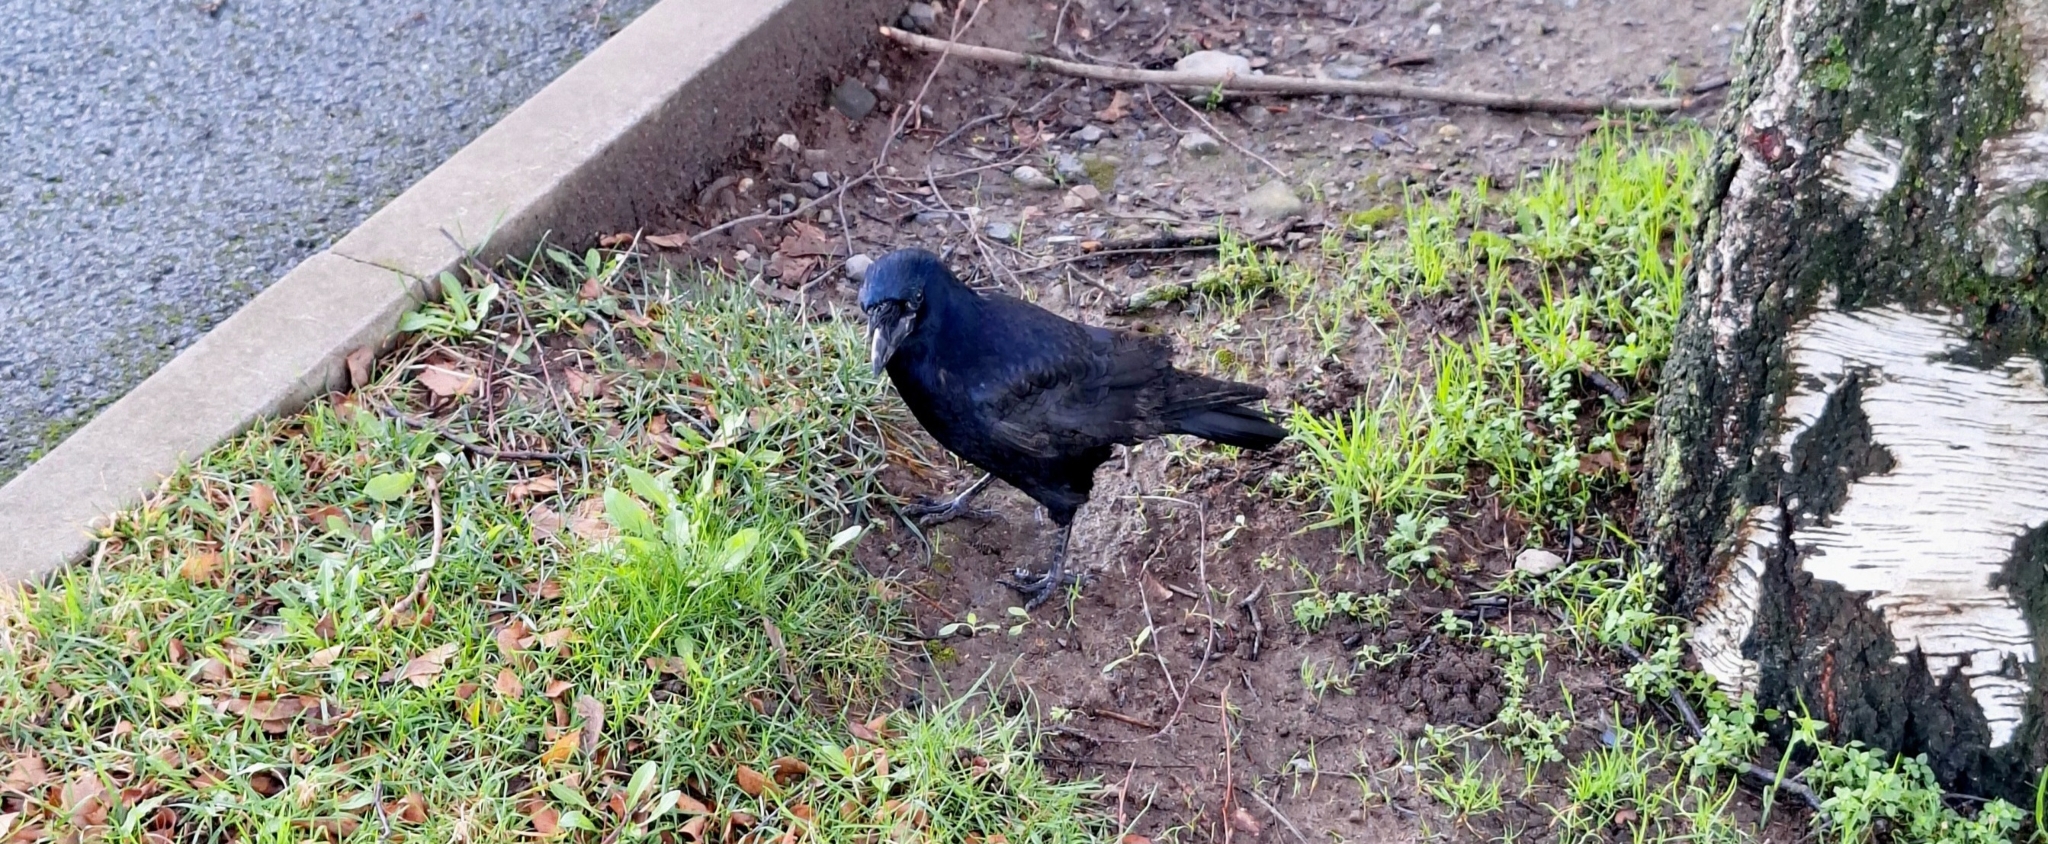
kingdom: Animalia
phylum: Chordata
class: Aves
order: Passeriformes
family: Corvidae
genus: Corvus
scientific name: Corvus frugilegus
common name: Rook
